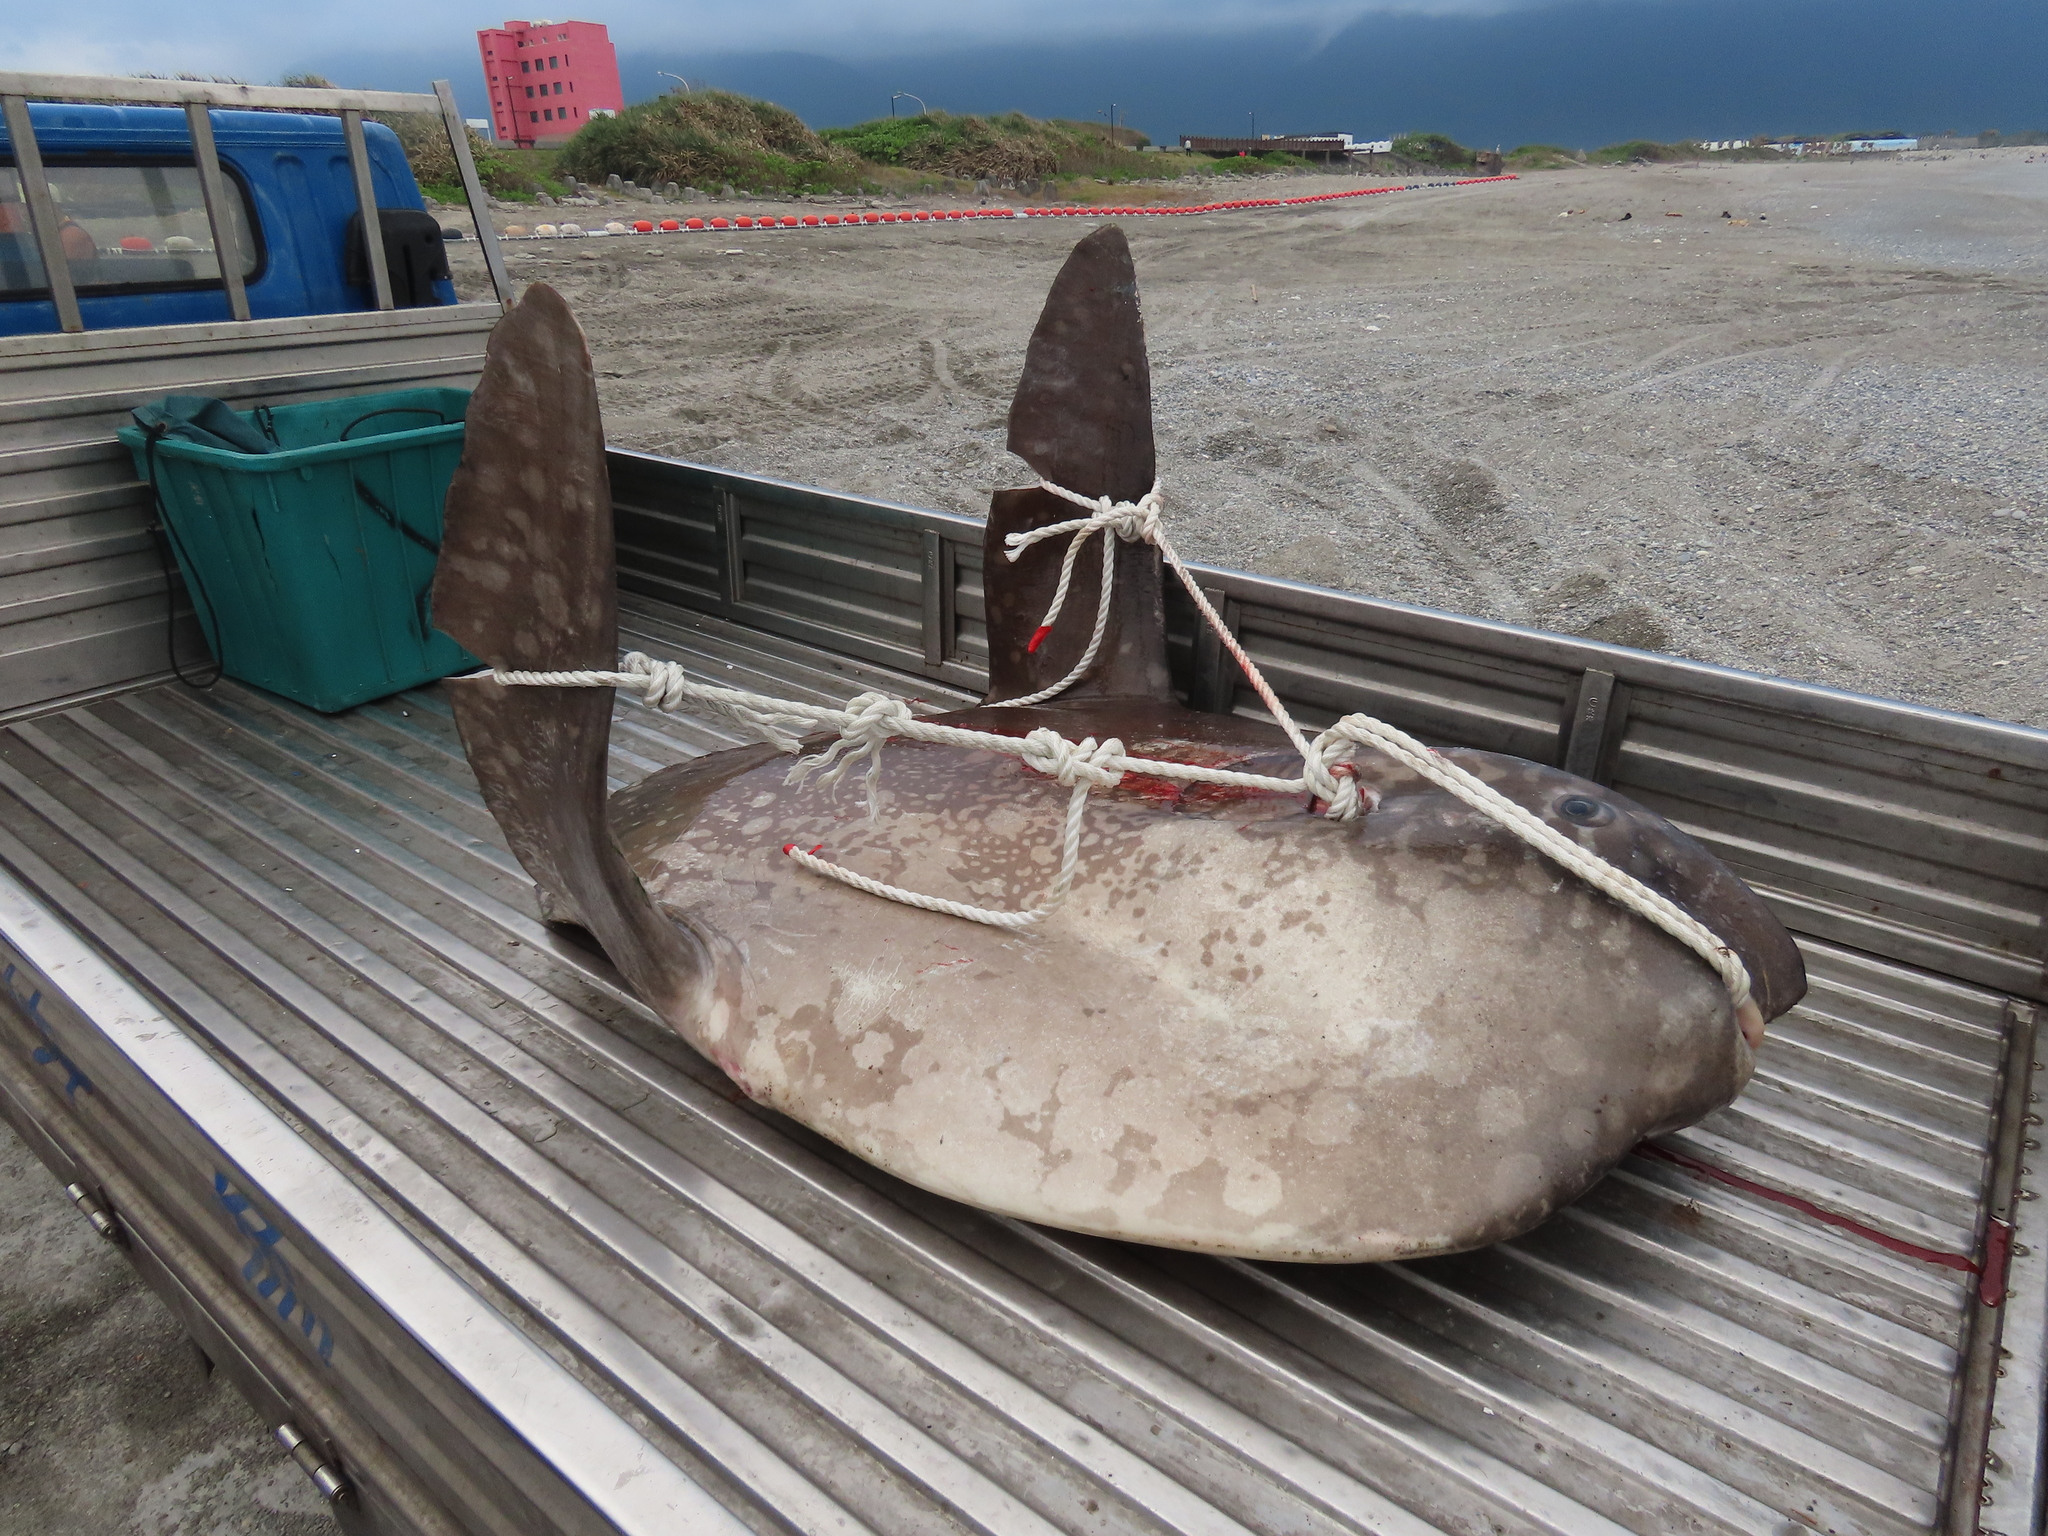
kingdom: Animalia
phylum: Chordata
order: Tetraodontiformes
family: Molidae
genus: Mola
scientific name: Mola mola
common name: Ocean sunfish
